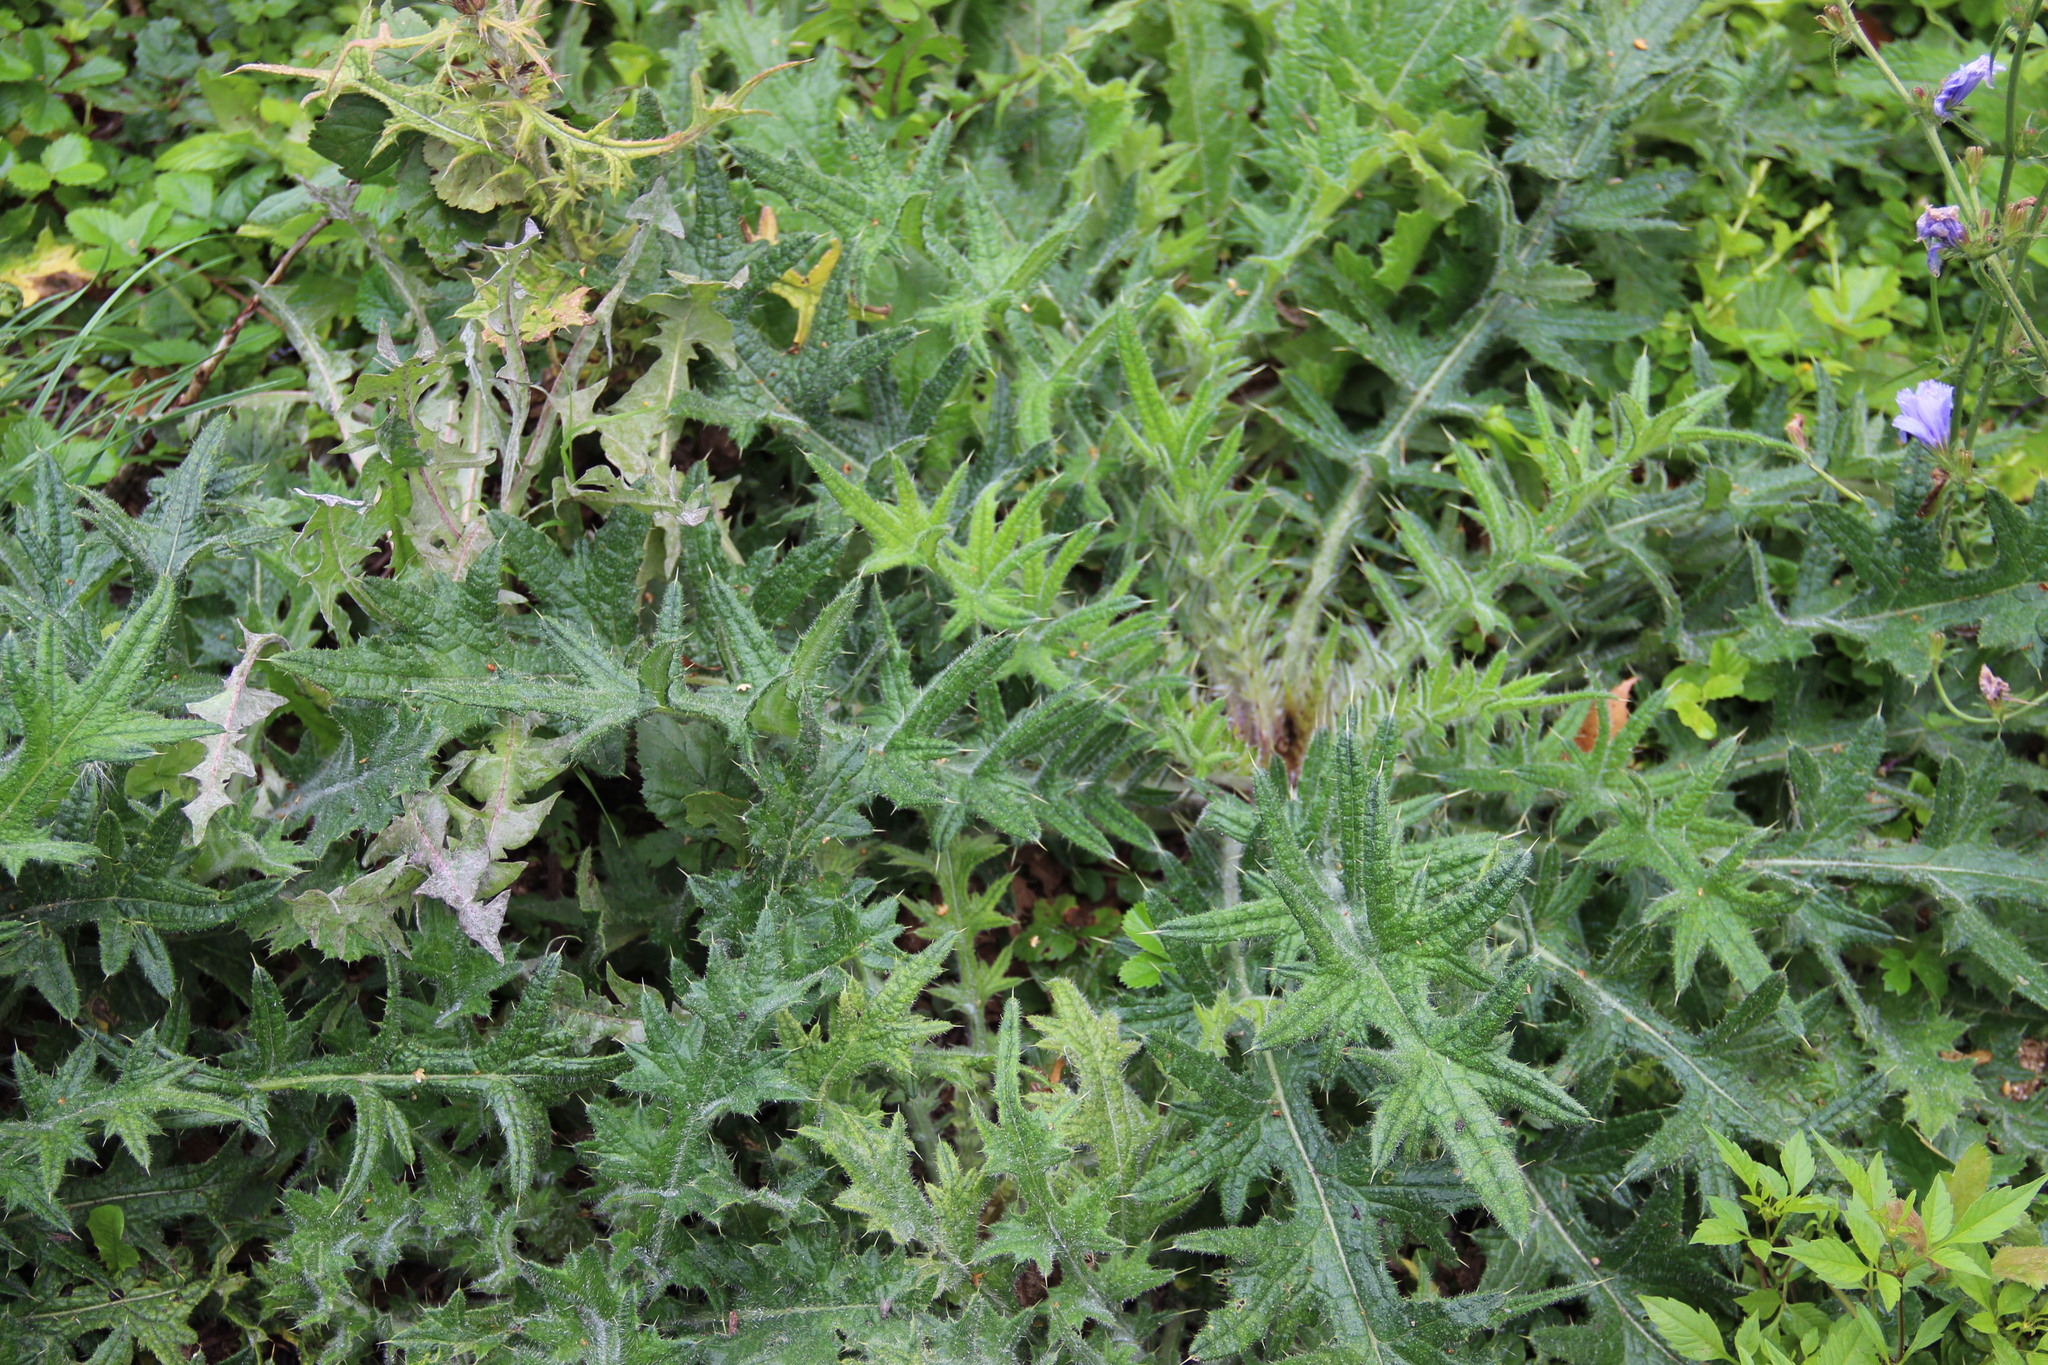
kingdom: Plantae
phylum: Tracheophyta
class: Magnoliopsida
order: Asterales
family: Asteraceae
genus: Cirsium
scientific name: Cirsium vulgare
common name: Bull thistle
